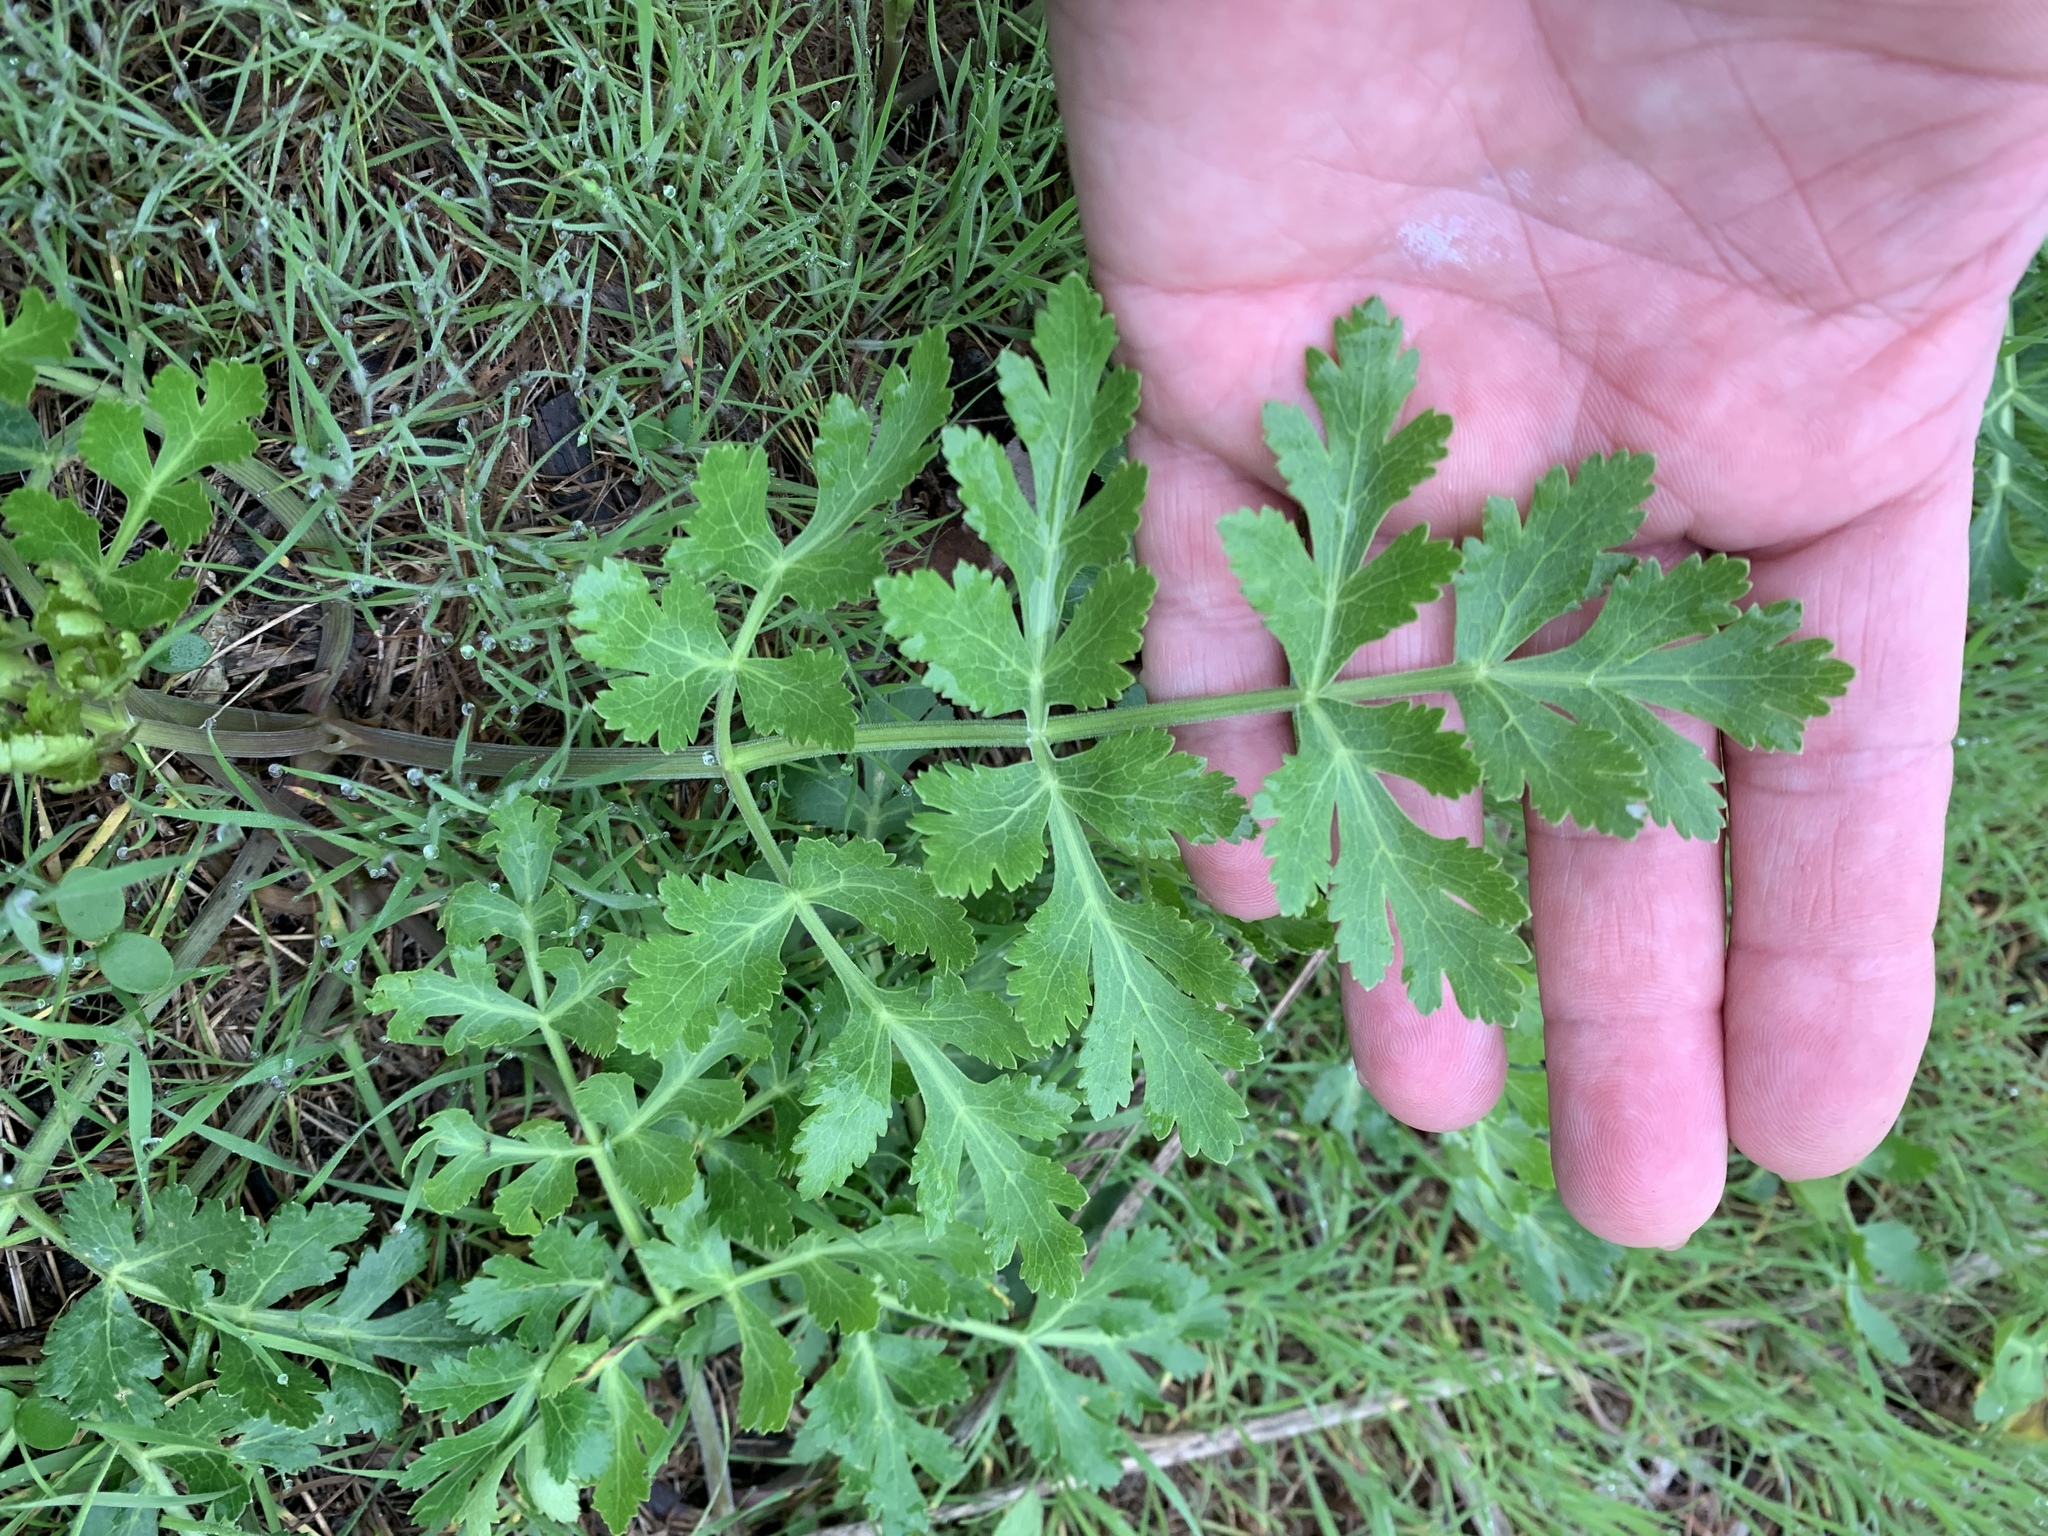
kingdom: Plantae
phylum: Tracheophyta
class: Magnoliopsida
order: Apiales
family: Apiaceae
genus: Polytaenia
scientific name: Polytaenia texana
